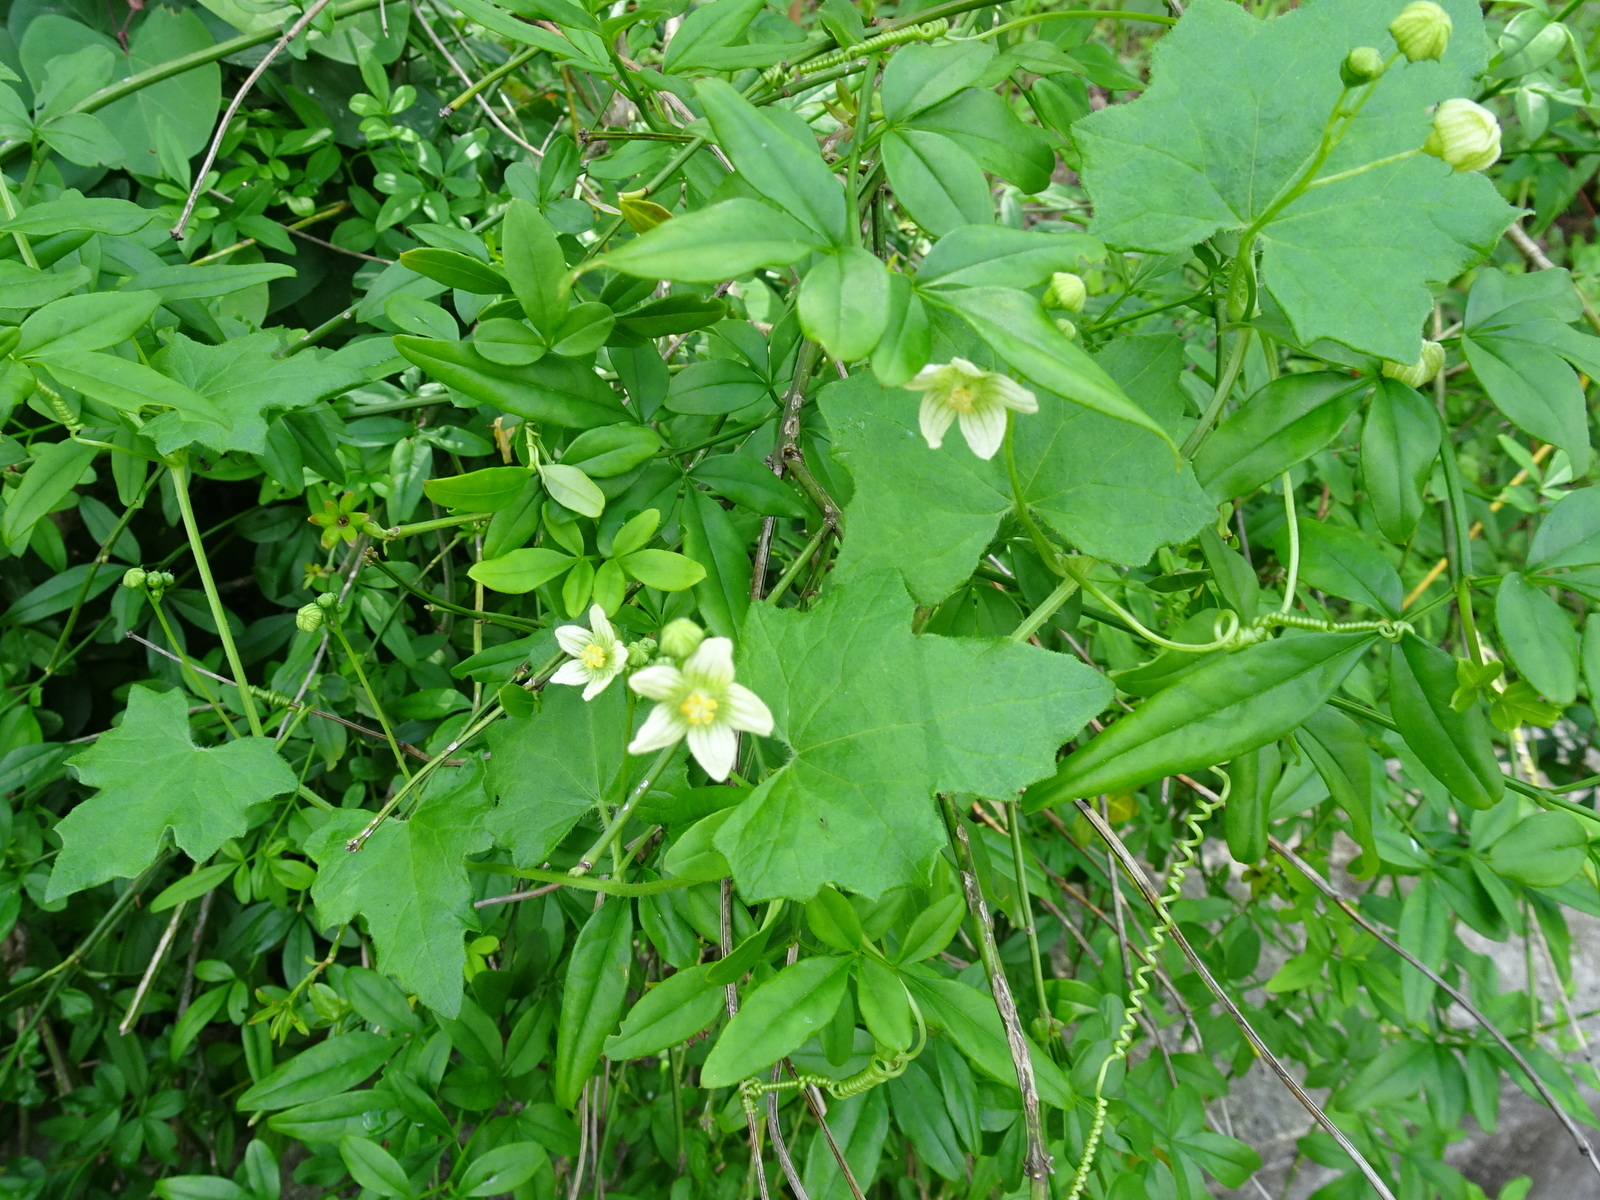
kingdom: Plantae
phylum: Tracheophyta
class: Magnoliopsida
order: Cucurbitales
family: Cucurbitaceae
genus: Bryonia
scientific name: Bryonia dioica
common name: White bryony
